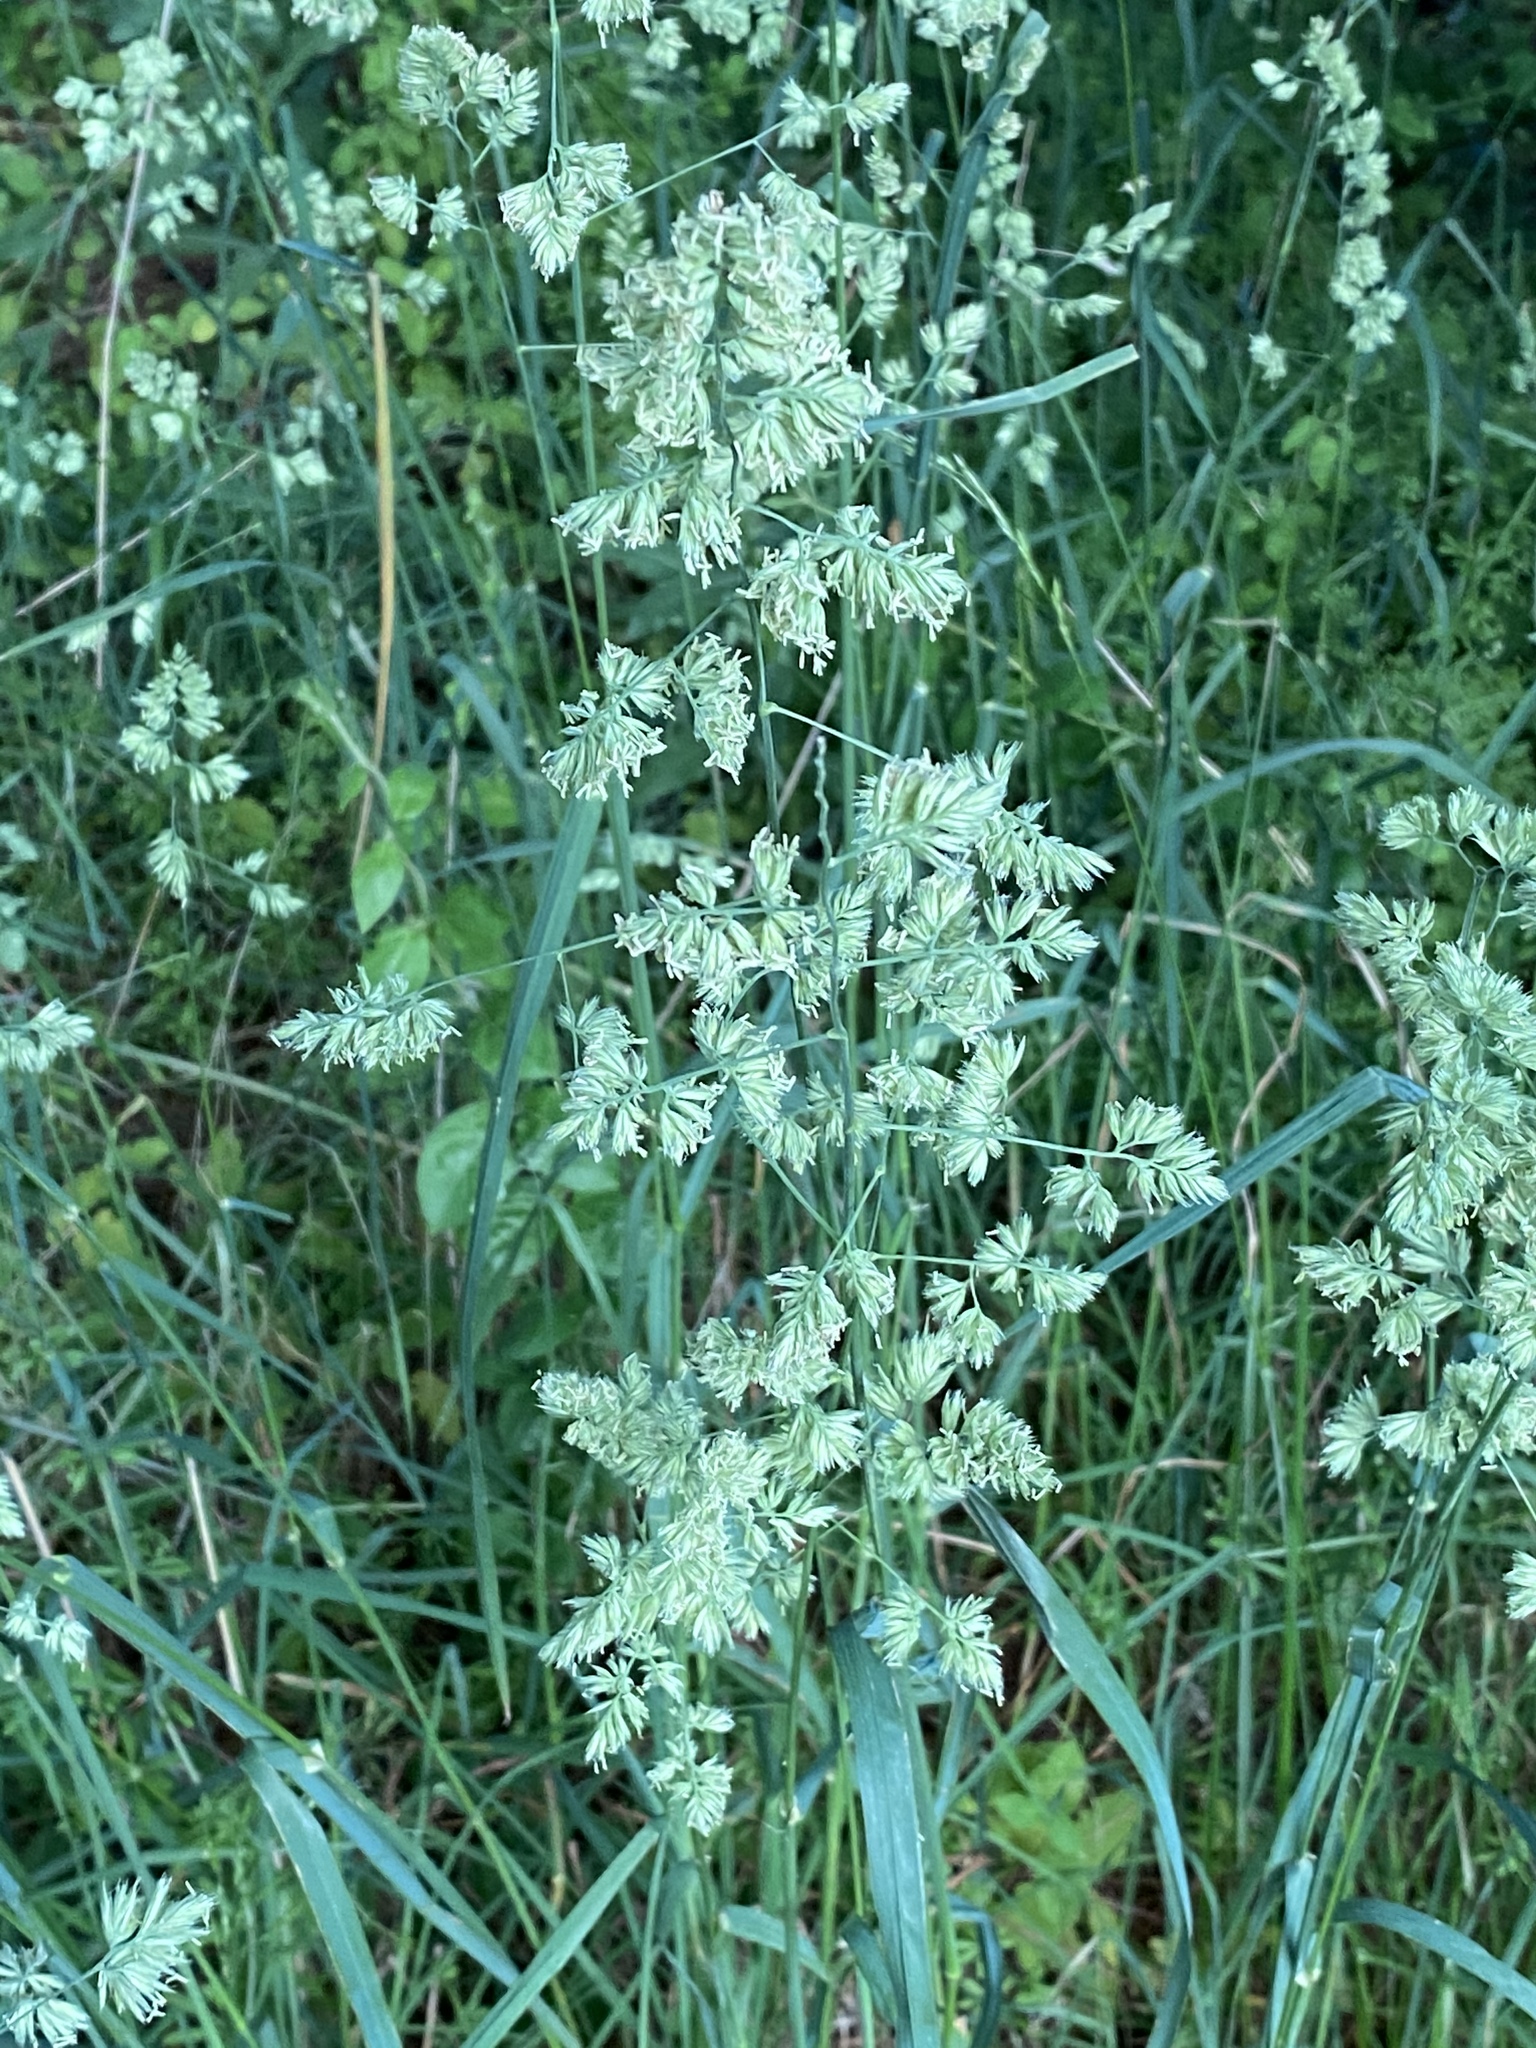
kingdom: Plantae
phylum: Tracheophyta
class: Liliopsida
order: Poales
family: Poaceae
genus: Dactylis
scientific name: Dactylis glomerata
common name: Orchardgrass
